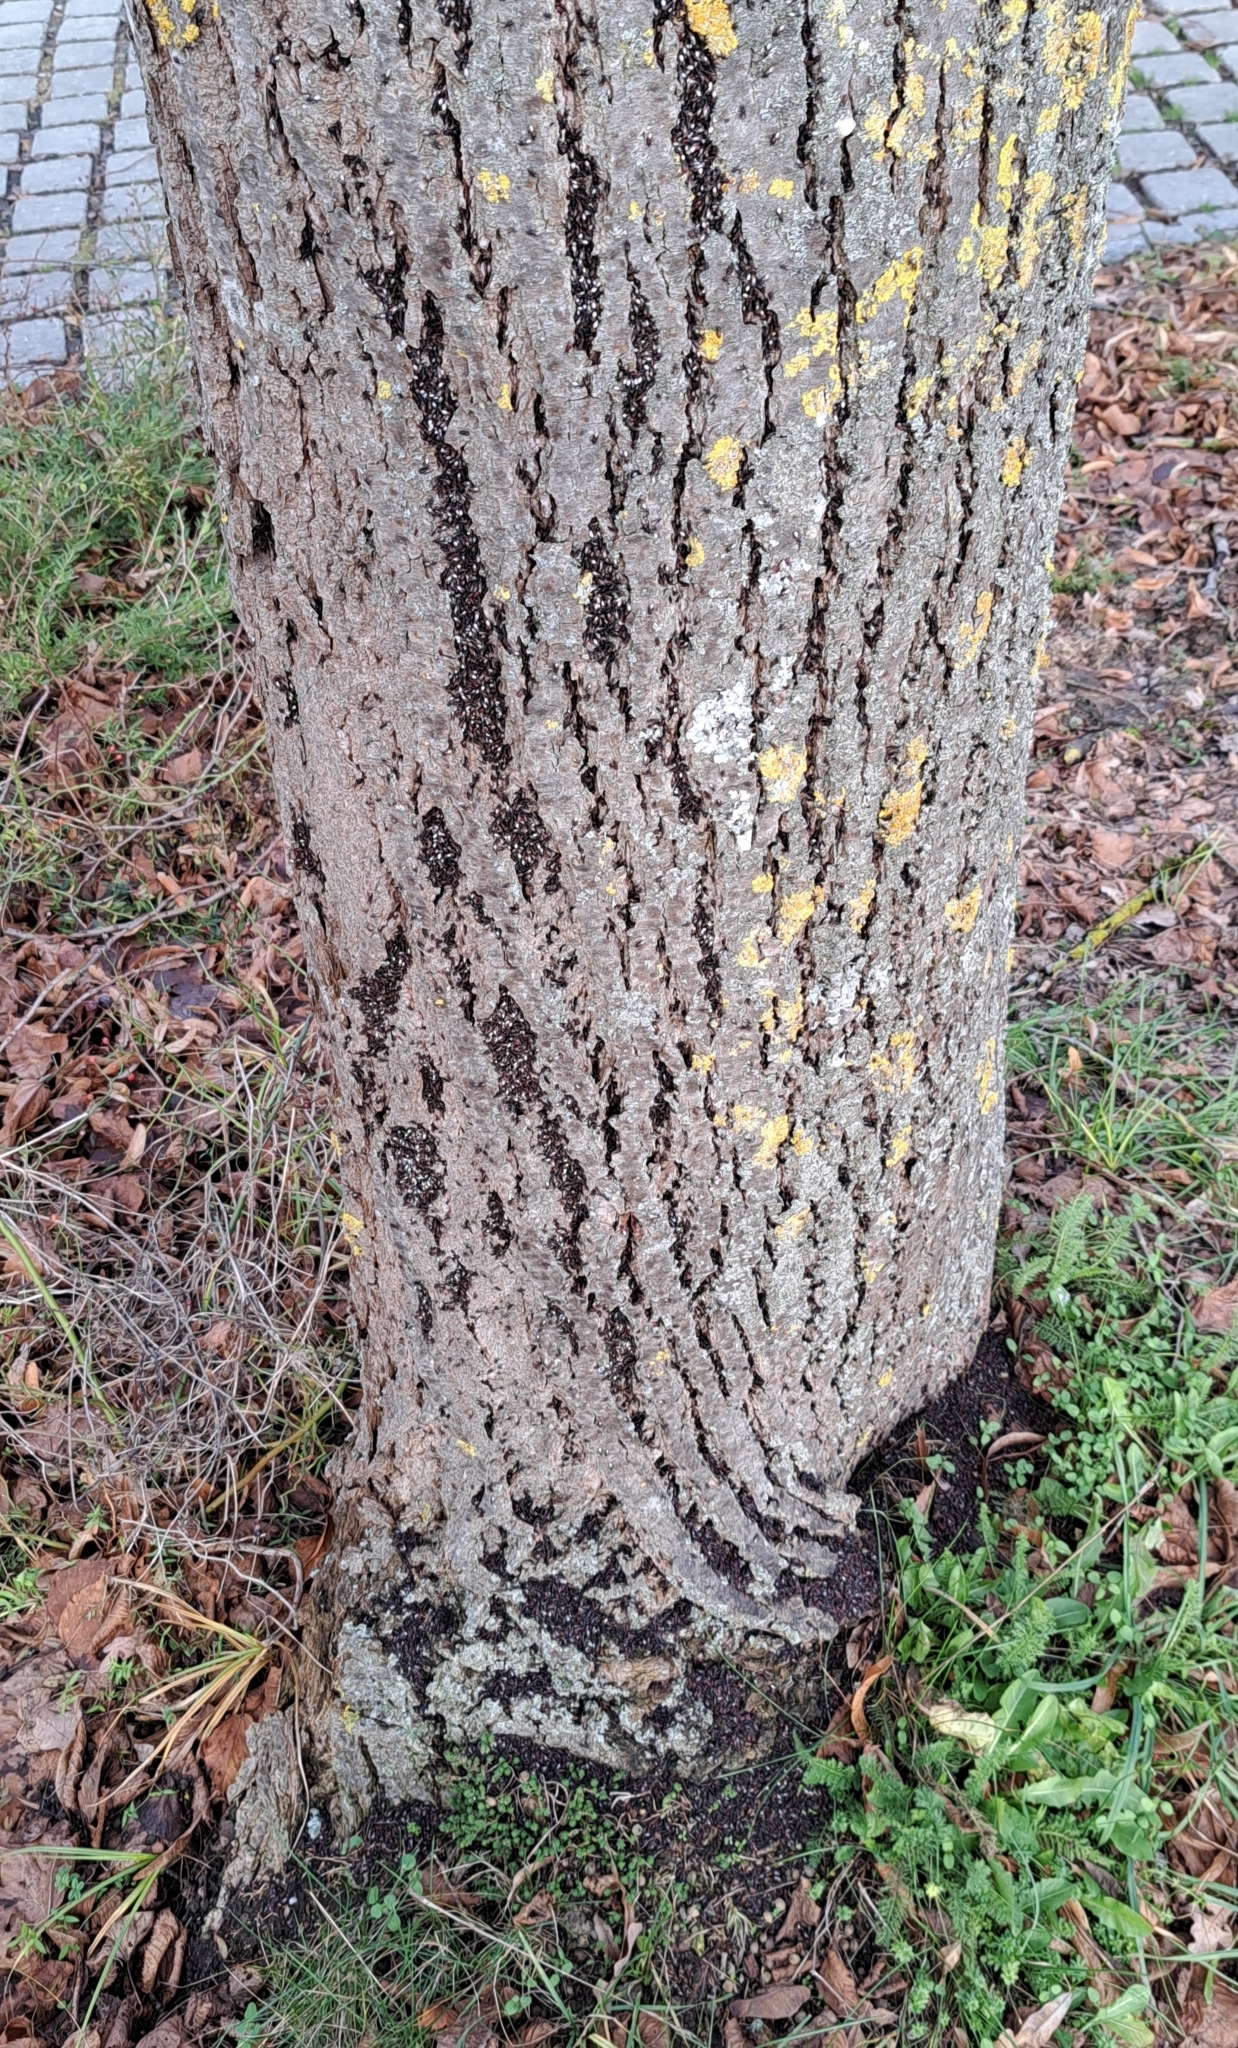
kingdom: Animalia
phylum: Arthropoda
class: Insecta
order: Hemiptera
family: Oxycarenidae
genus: Oxycarenus
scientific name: Oxycarenus lavaterae
